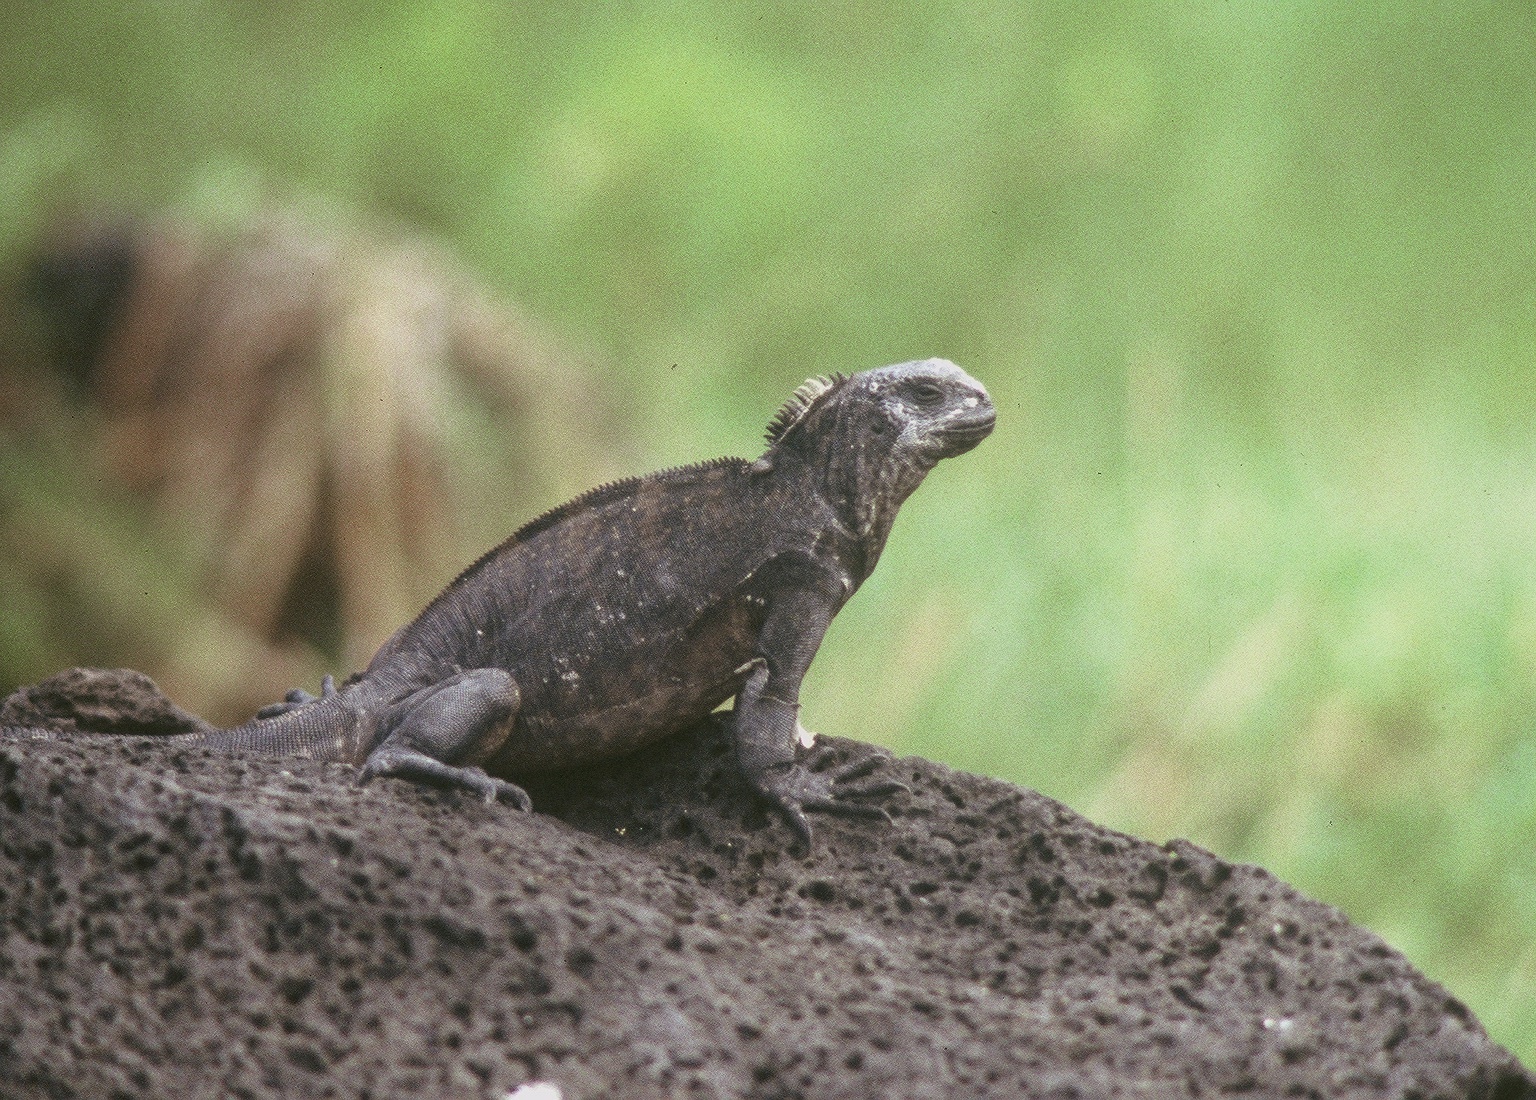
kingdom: Animalia
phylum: Chordata
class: Squamata
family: Iguanidae
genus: Amblyrhynchus
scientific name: Amblyrhynchus cristatus
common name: Marine iguana
